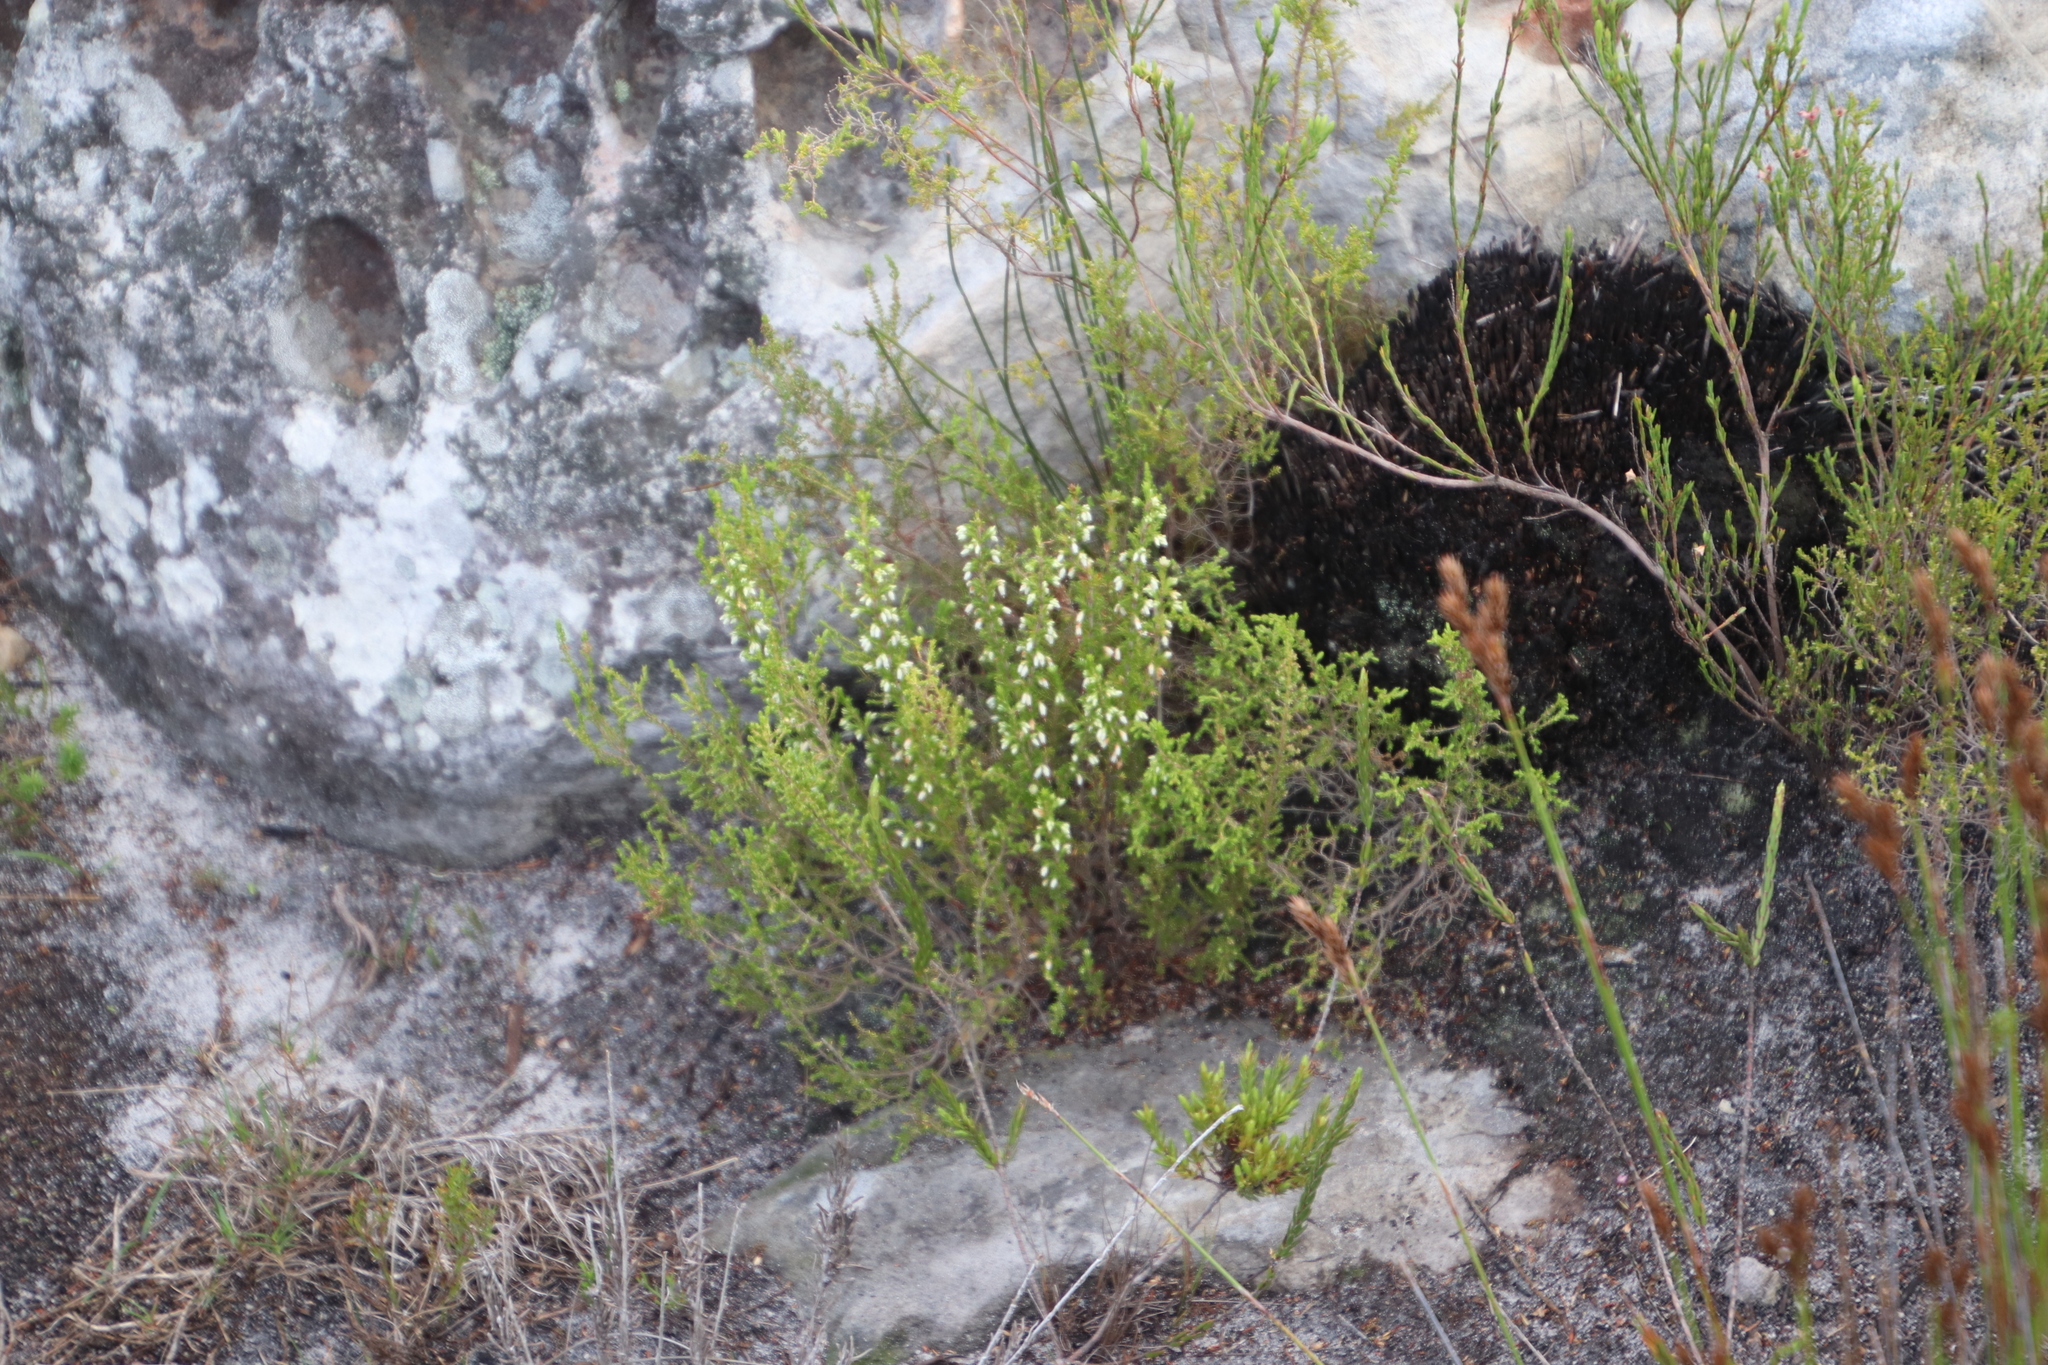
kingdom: Plantae
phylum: Tracheophyta
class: Magnoliopsida
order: Ericales
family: Ericaceae
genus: Erica
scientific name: Erica imbricata
